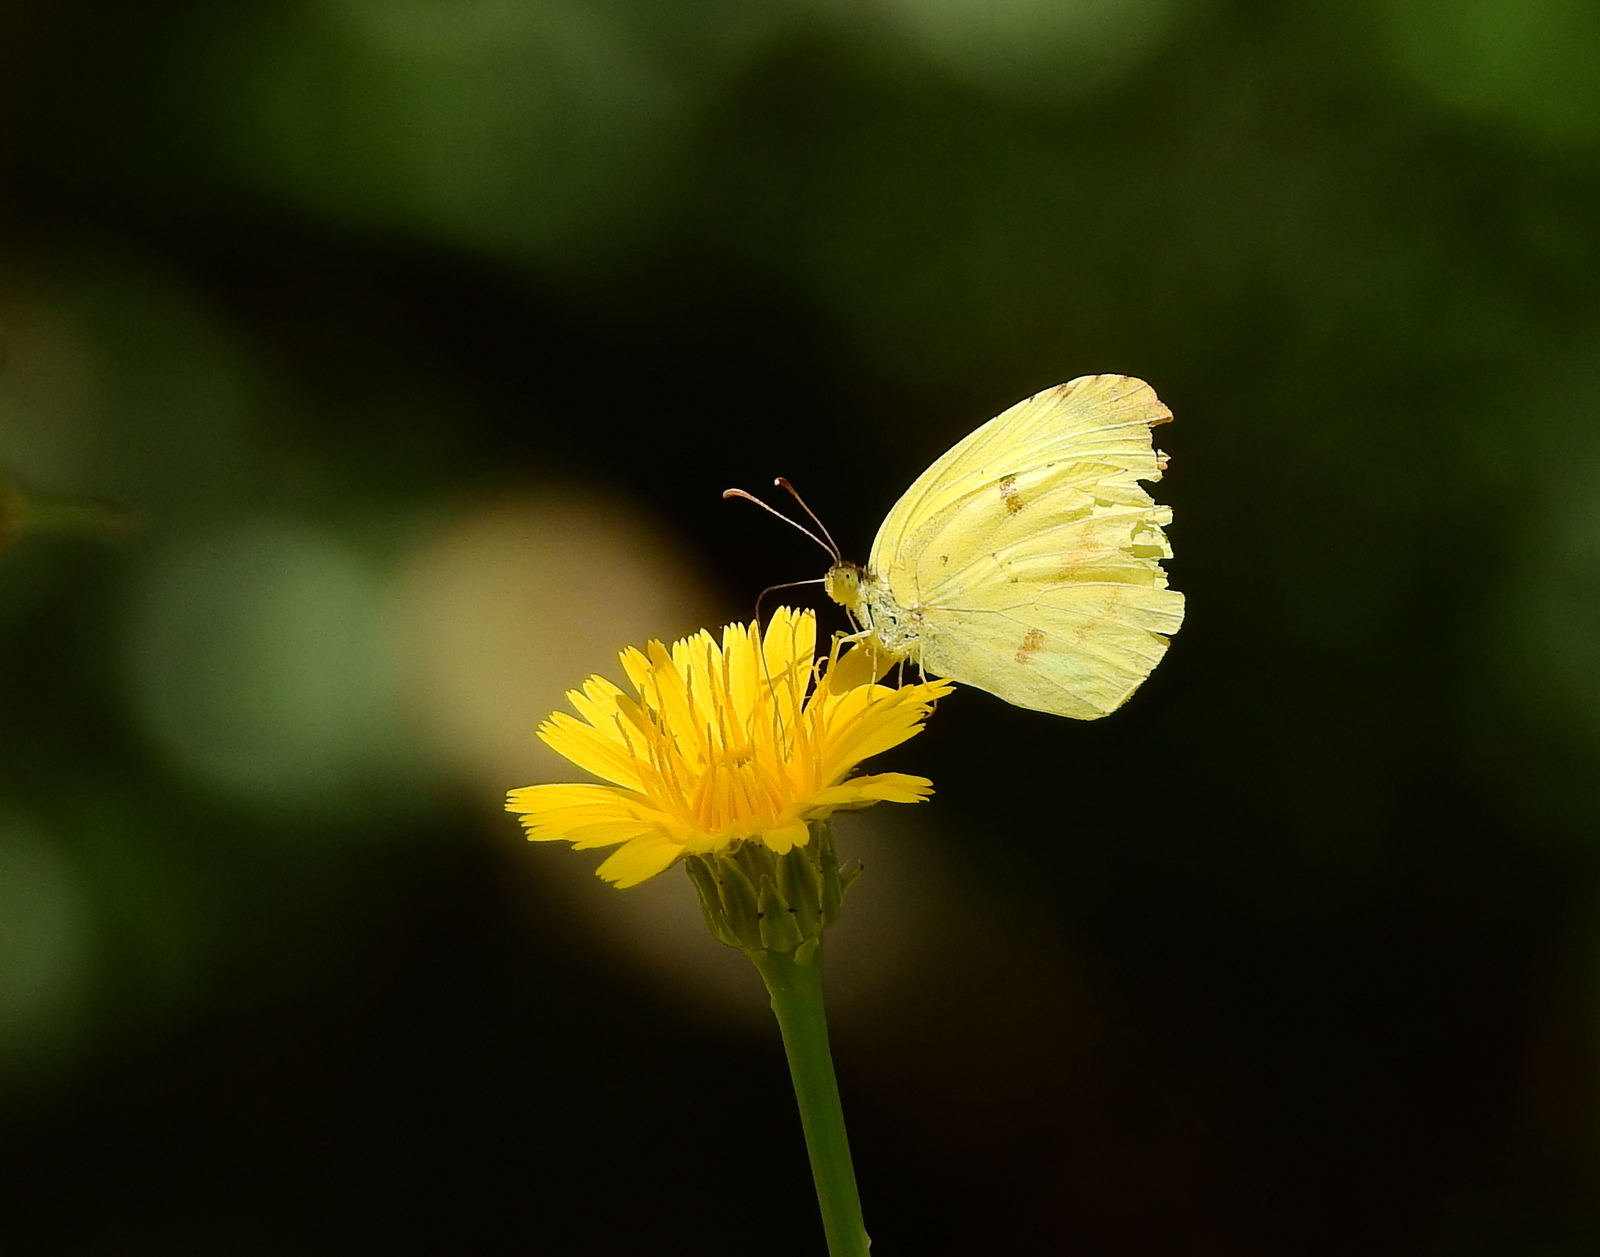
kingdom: Animalia
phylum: Arthropoda
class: Insecta
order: Lepidoptera
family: Pieridae
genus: Teriocolias
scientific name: Teriocolias
